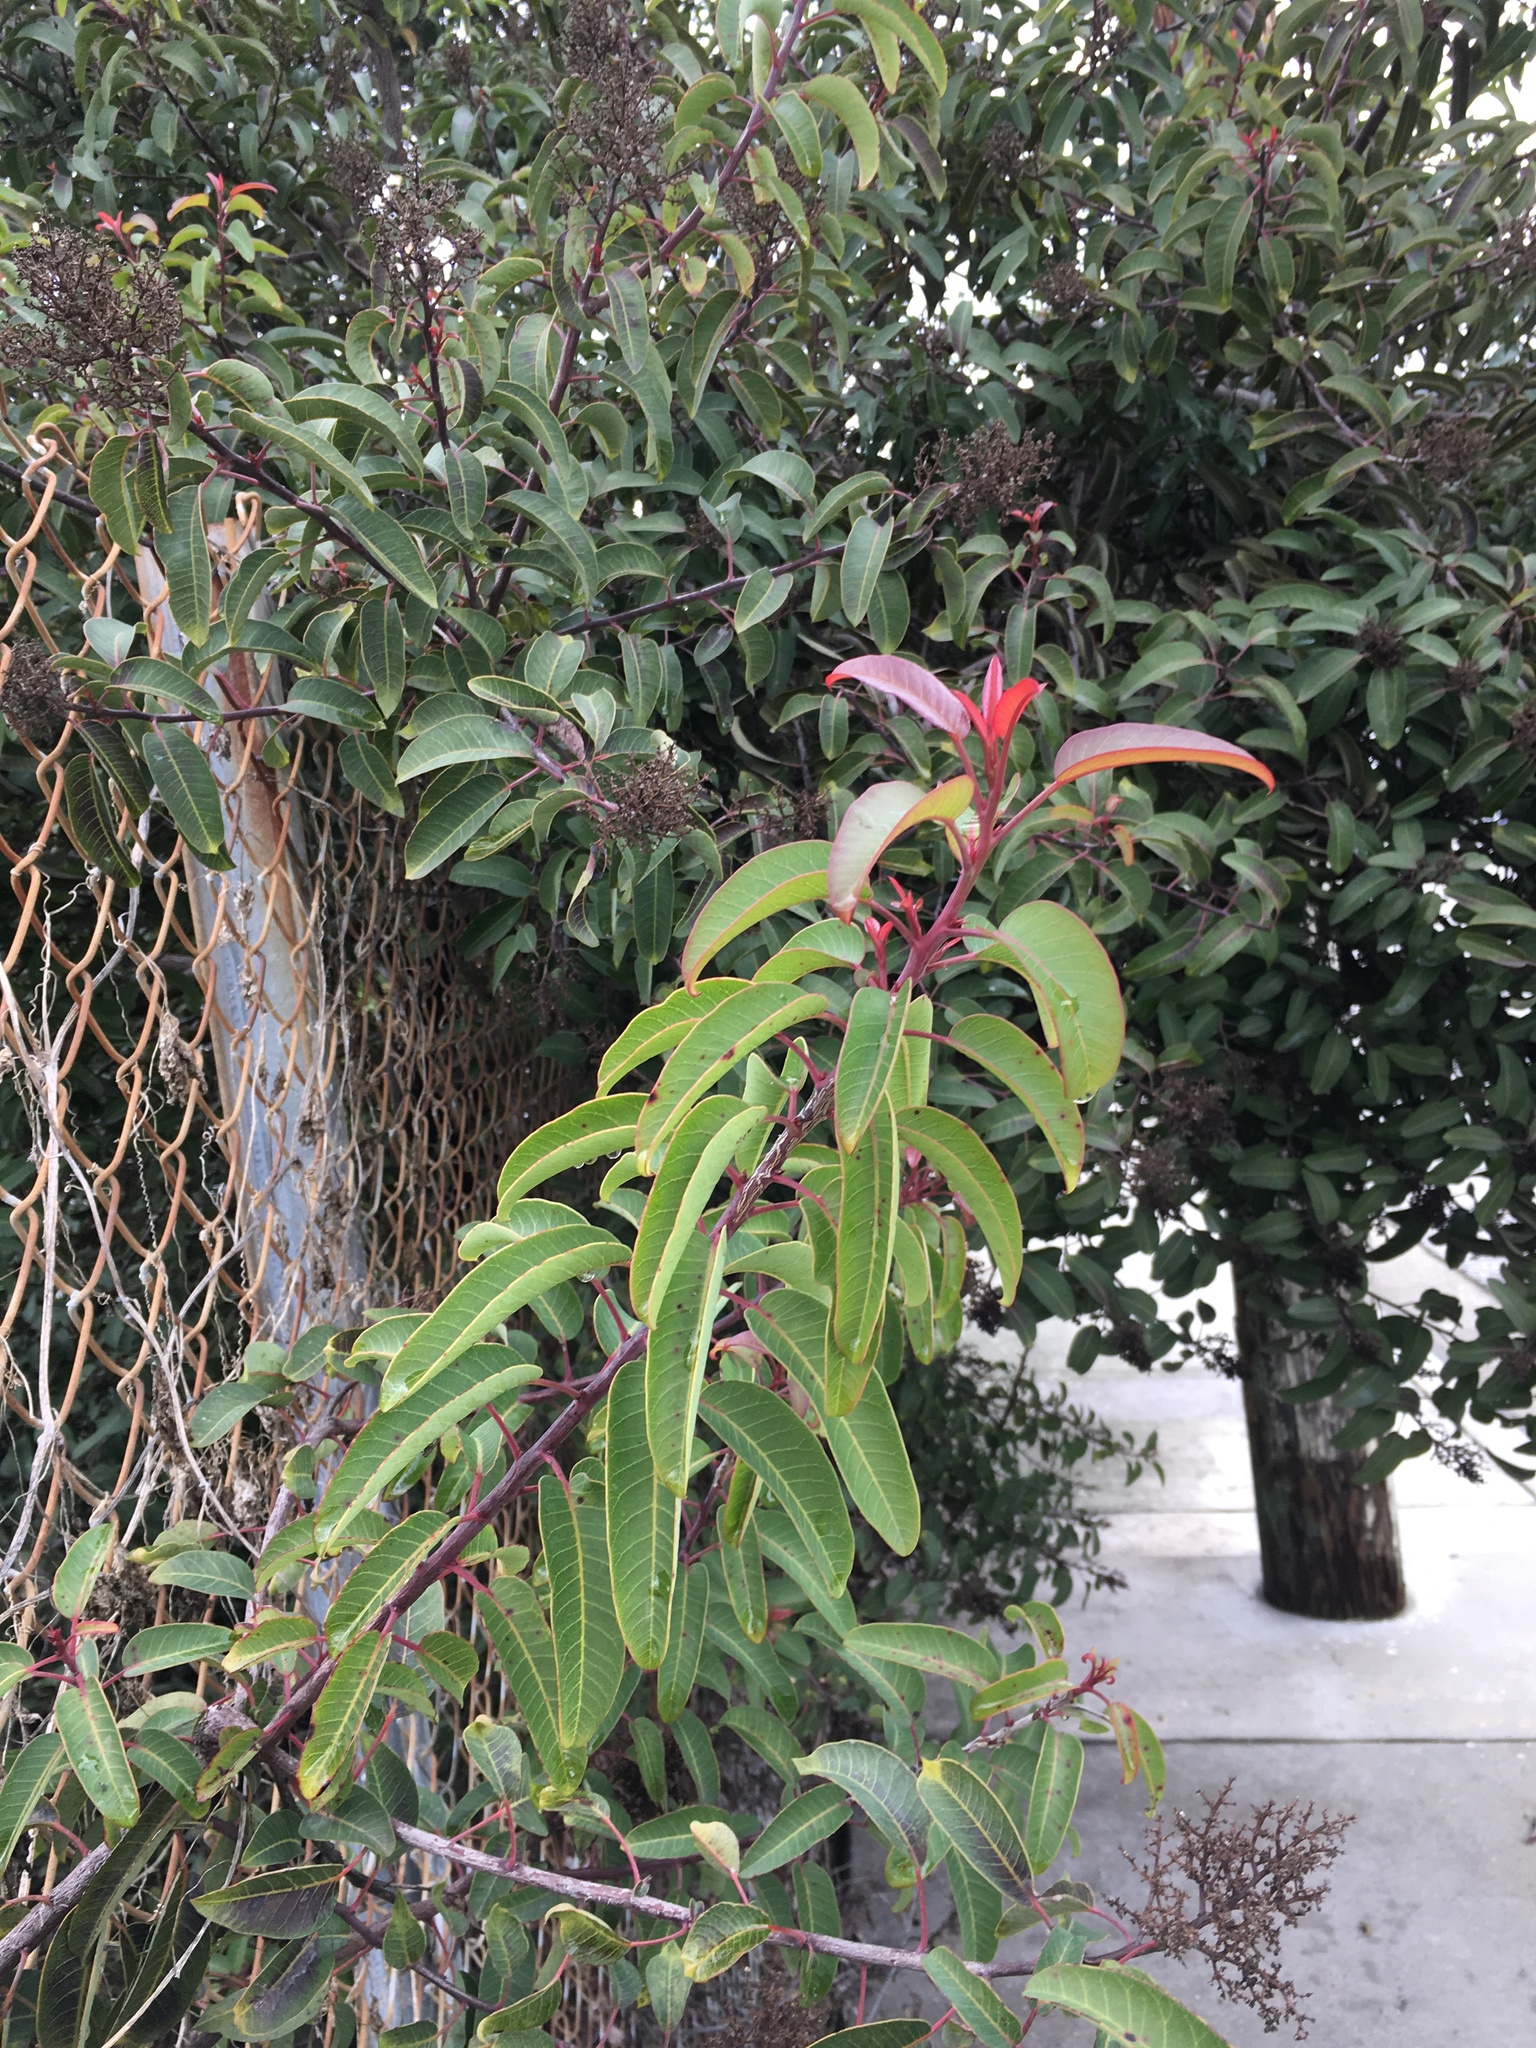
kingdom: Plantae
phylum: Tracheophyta
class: Magnoliopsida
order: Sapindales
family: Anacardiaceae
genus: Malosma
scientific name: Malosma laurina
